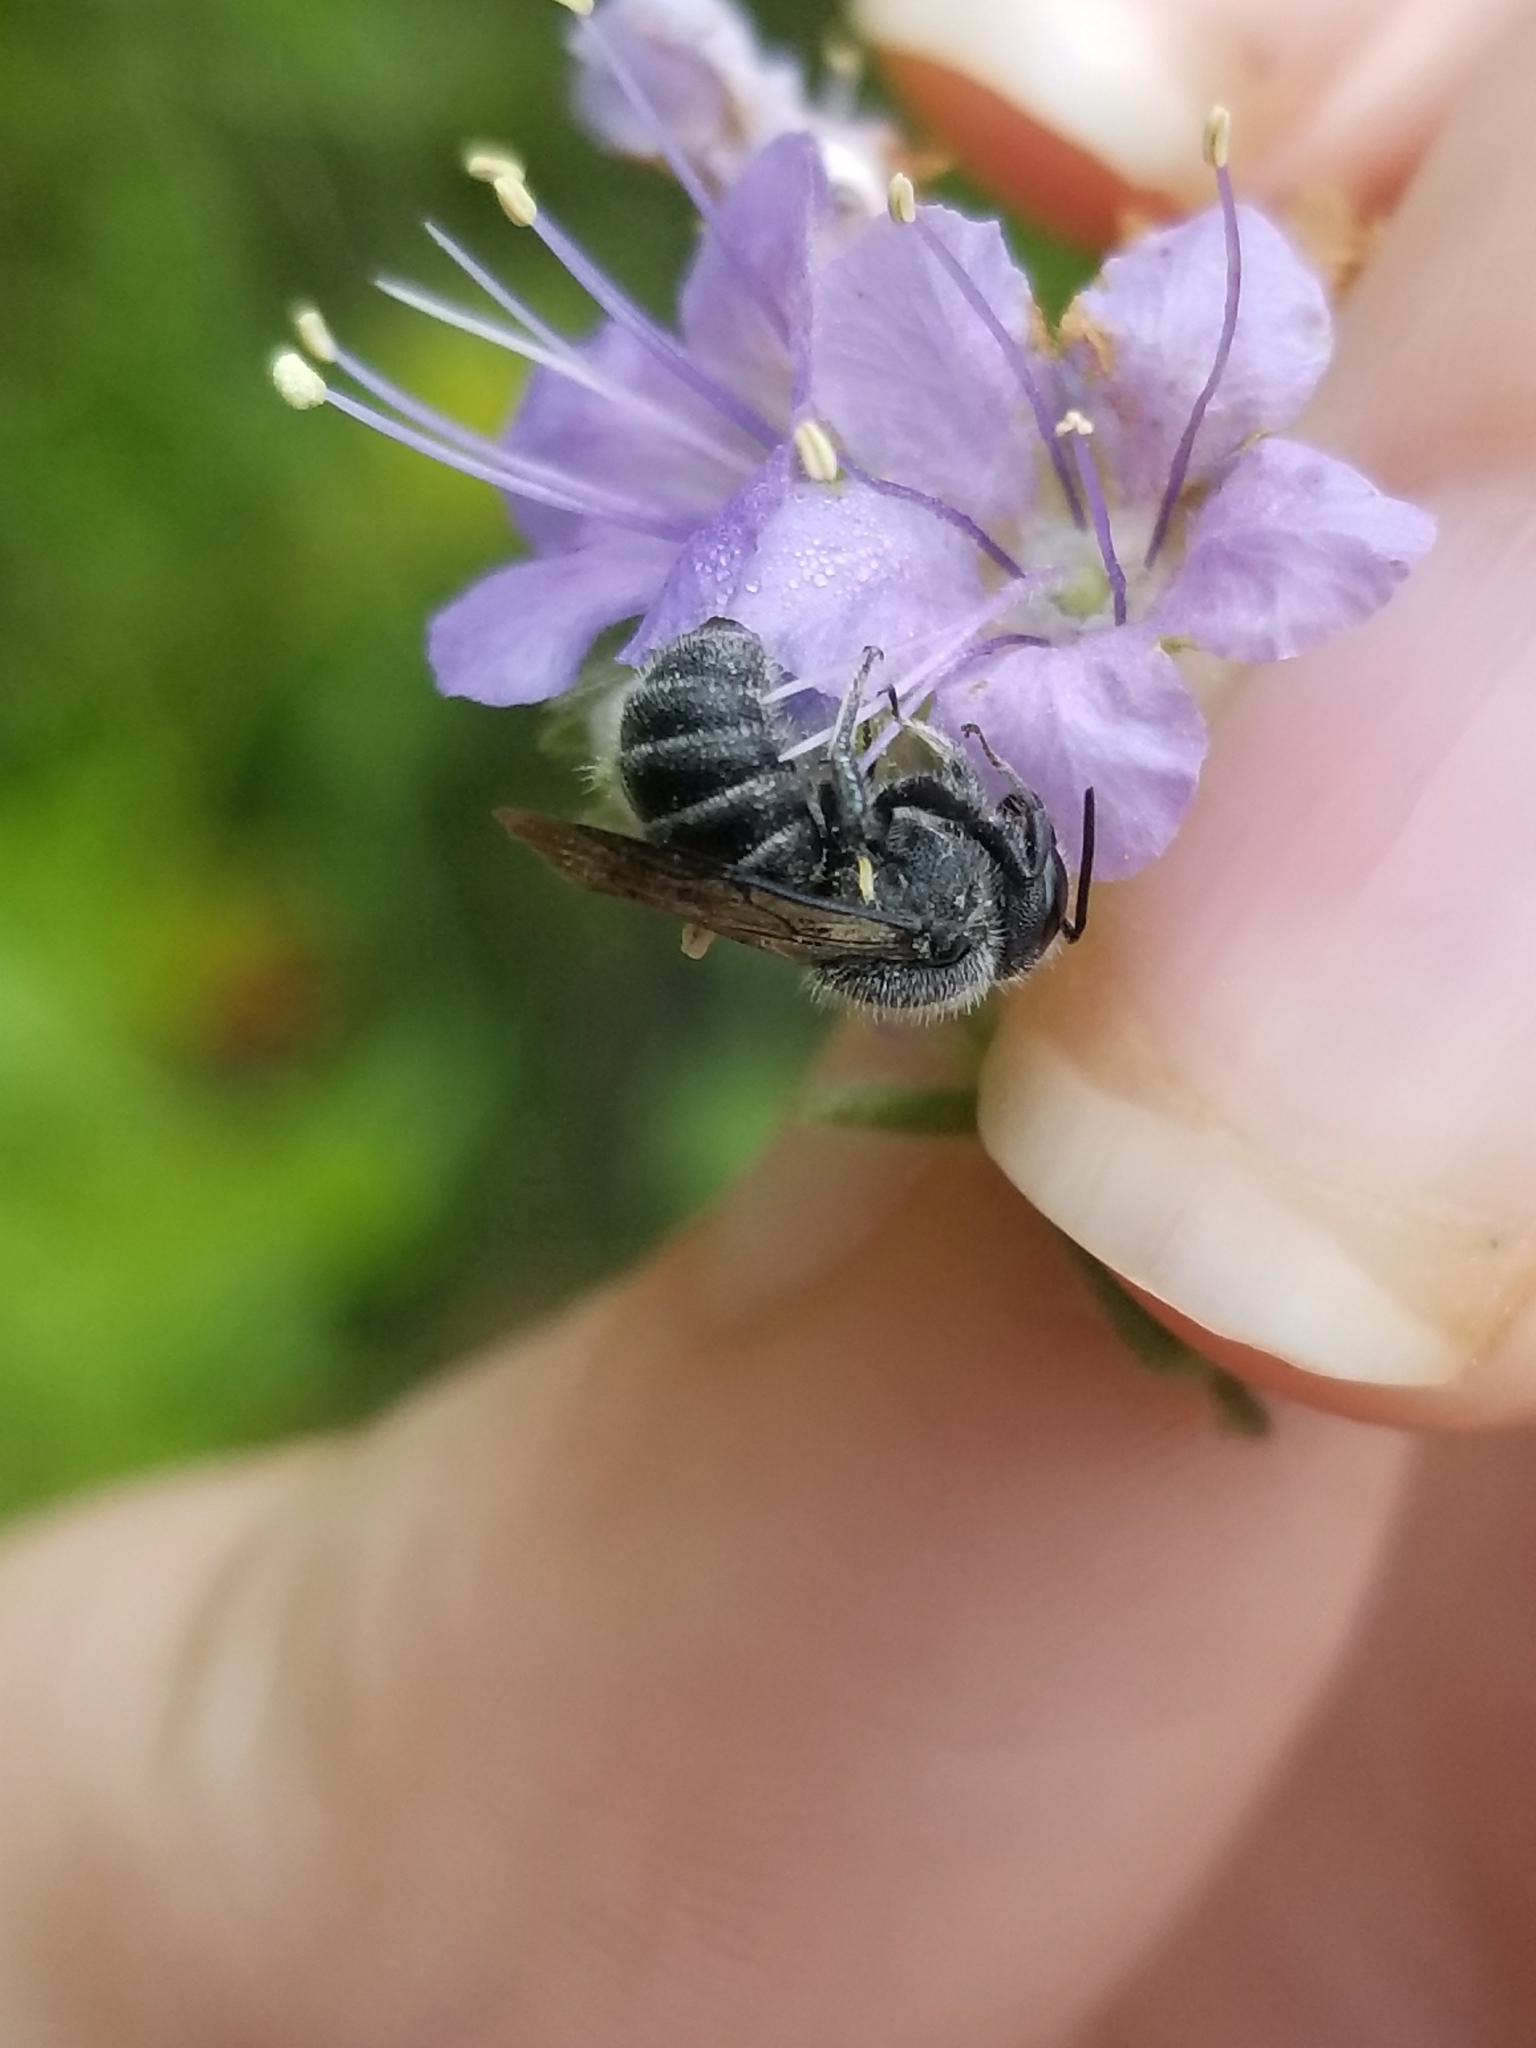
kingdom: Animalia
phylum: Arthropoda
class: Insecta
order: Hymenoptera
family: Megachilidae
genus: Stelis
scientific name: Stelis diversicolor
